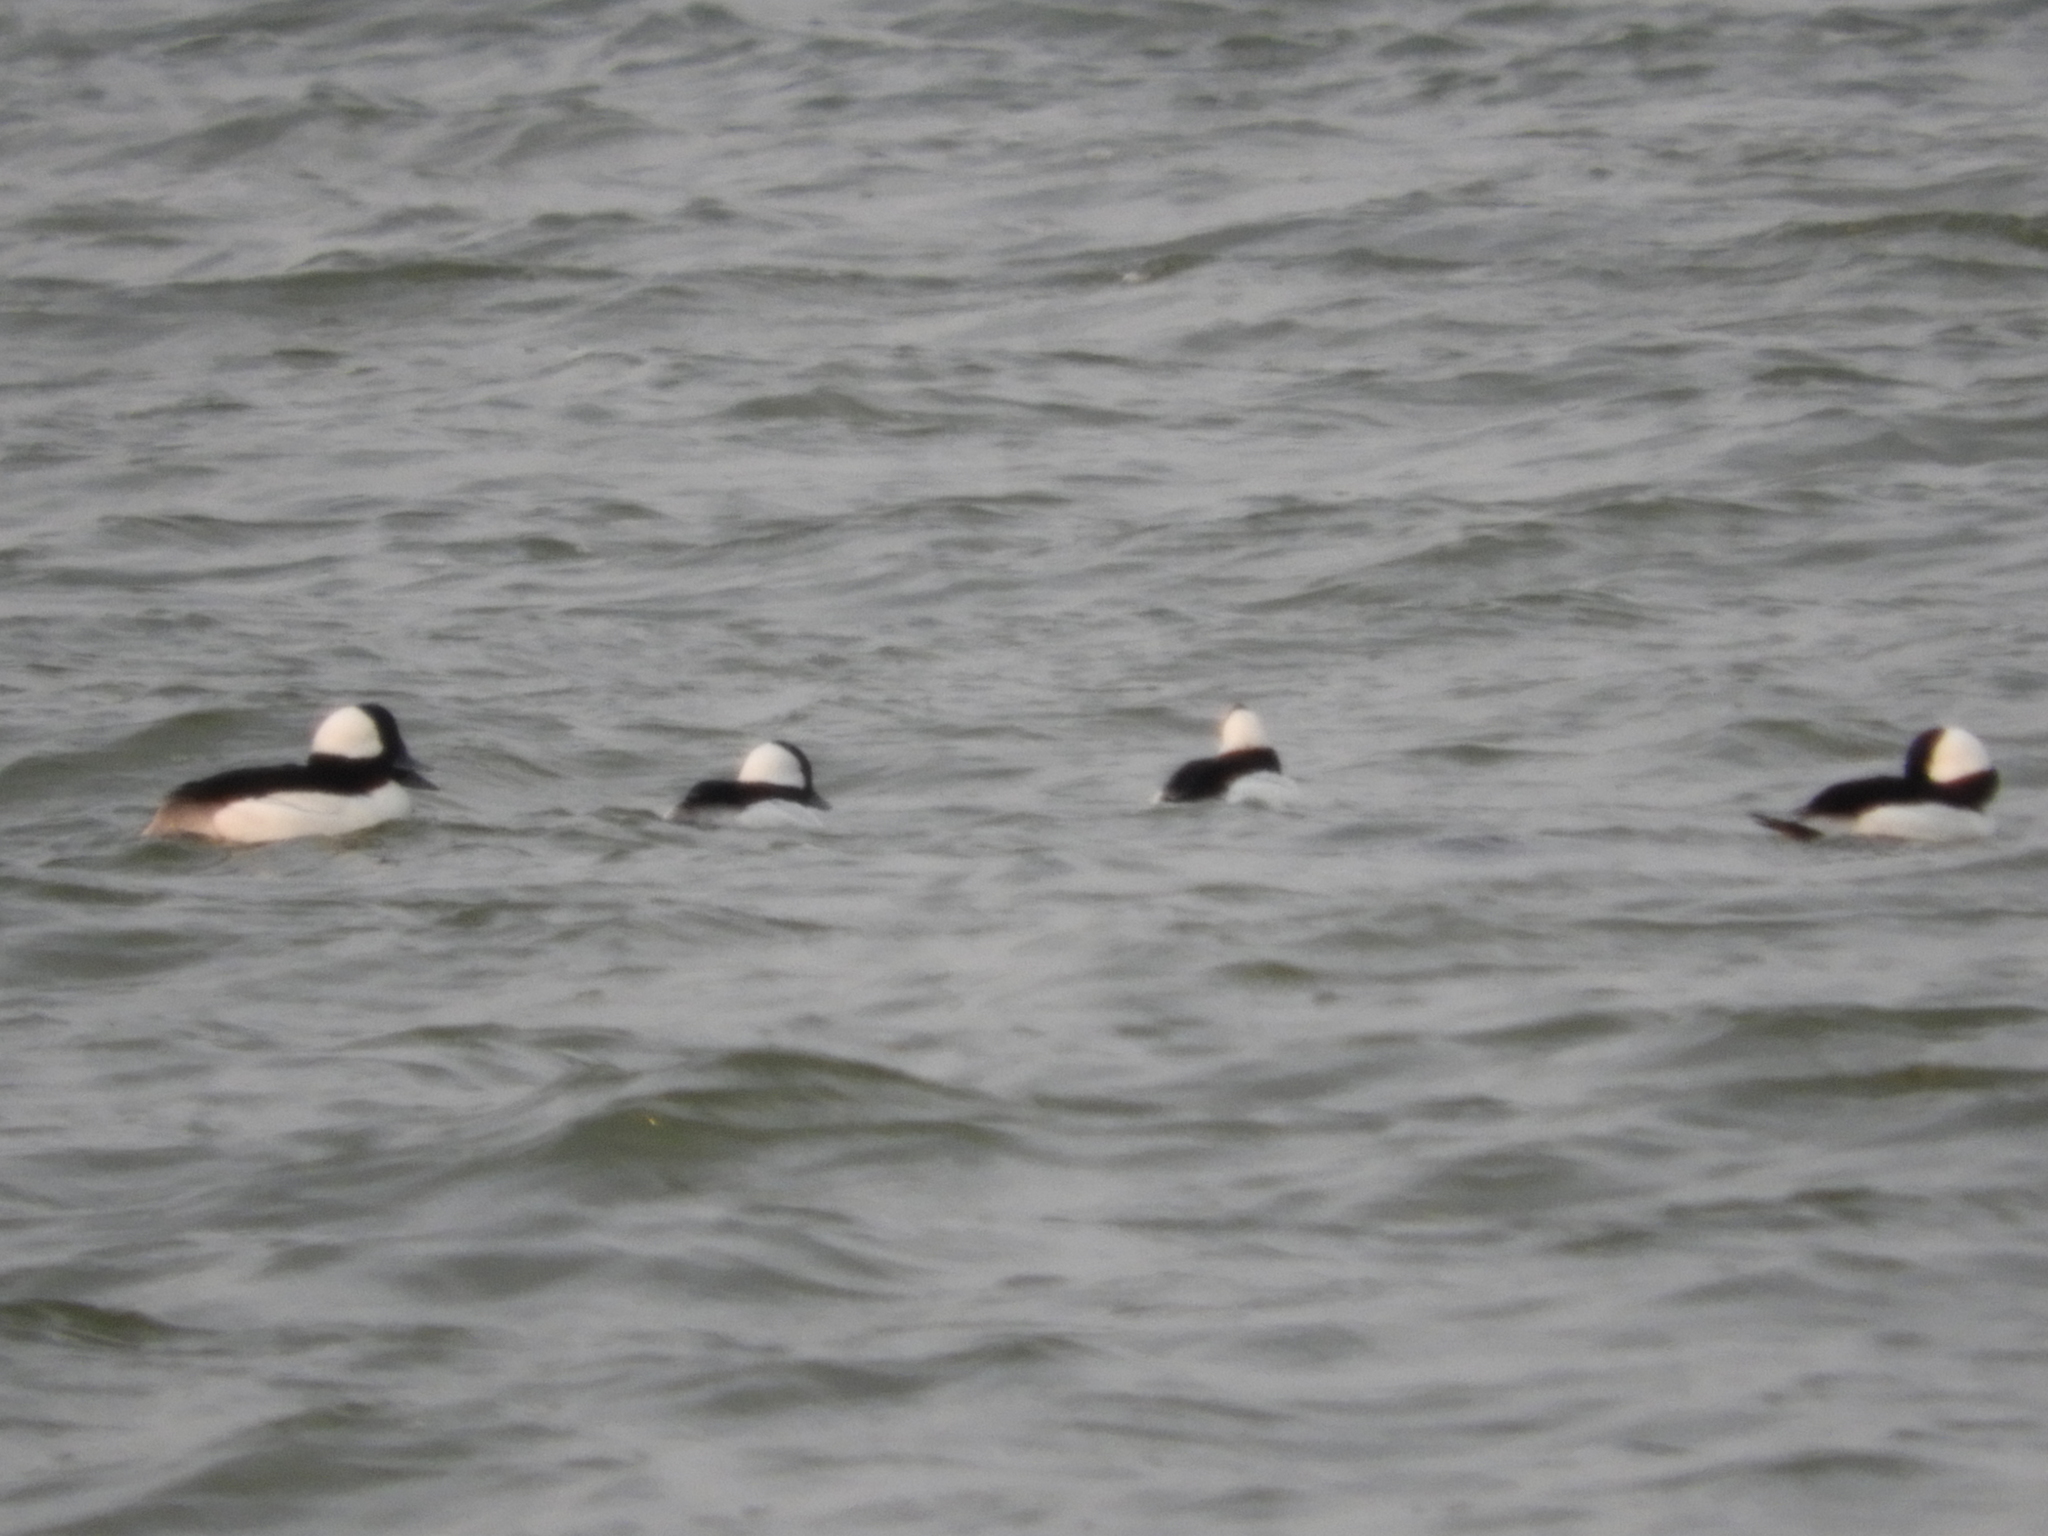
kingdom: Animalia
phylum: Chordata
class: Aves
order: Anseriformes
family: Anatidae
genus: Bucephala
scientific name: Bucephala albeola
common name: Bufflehead
